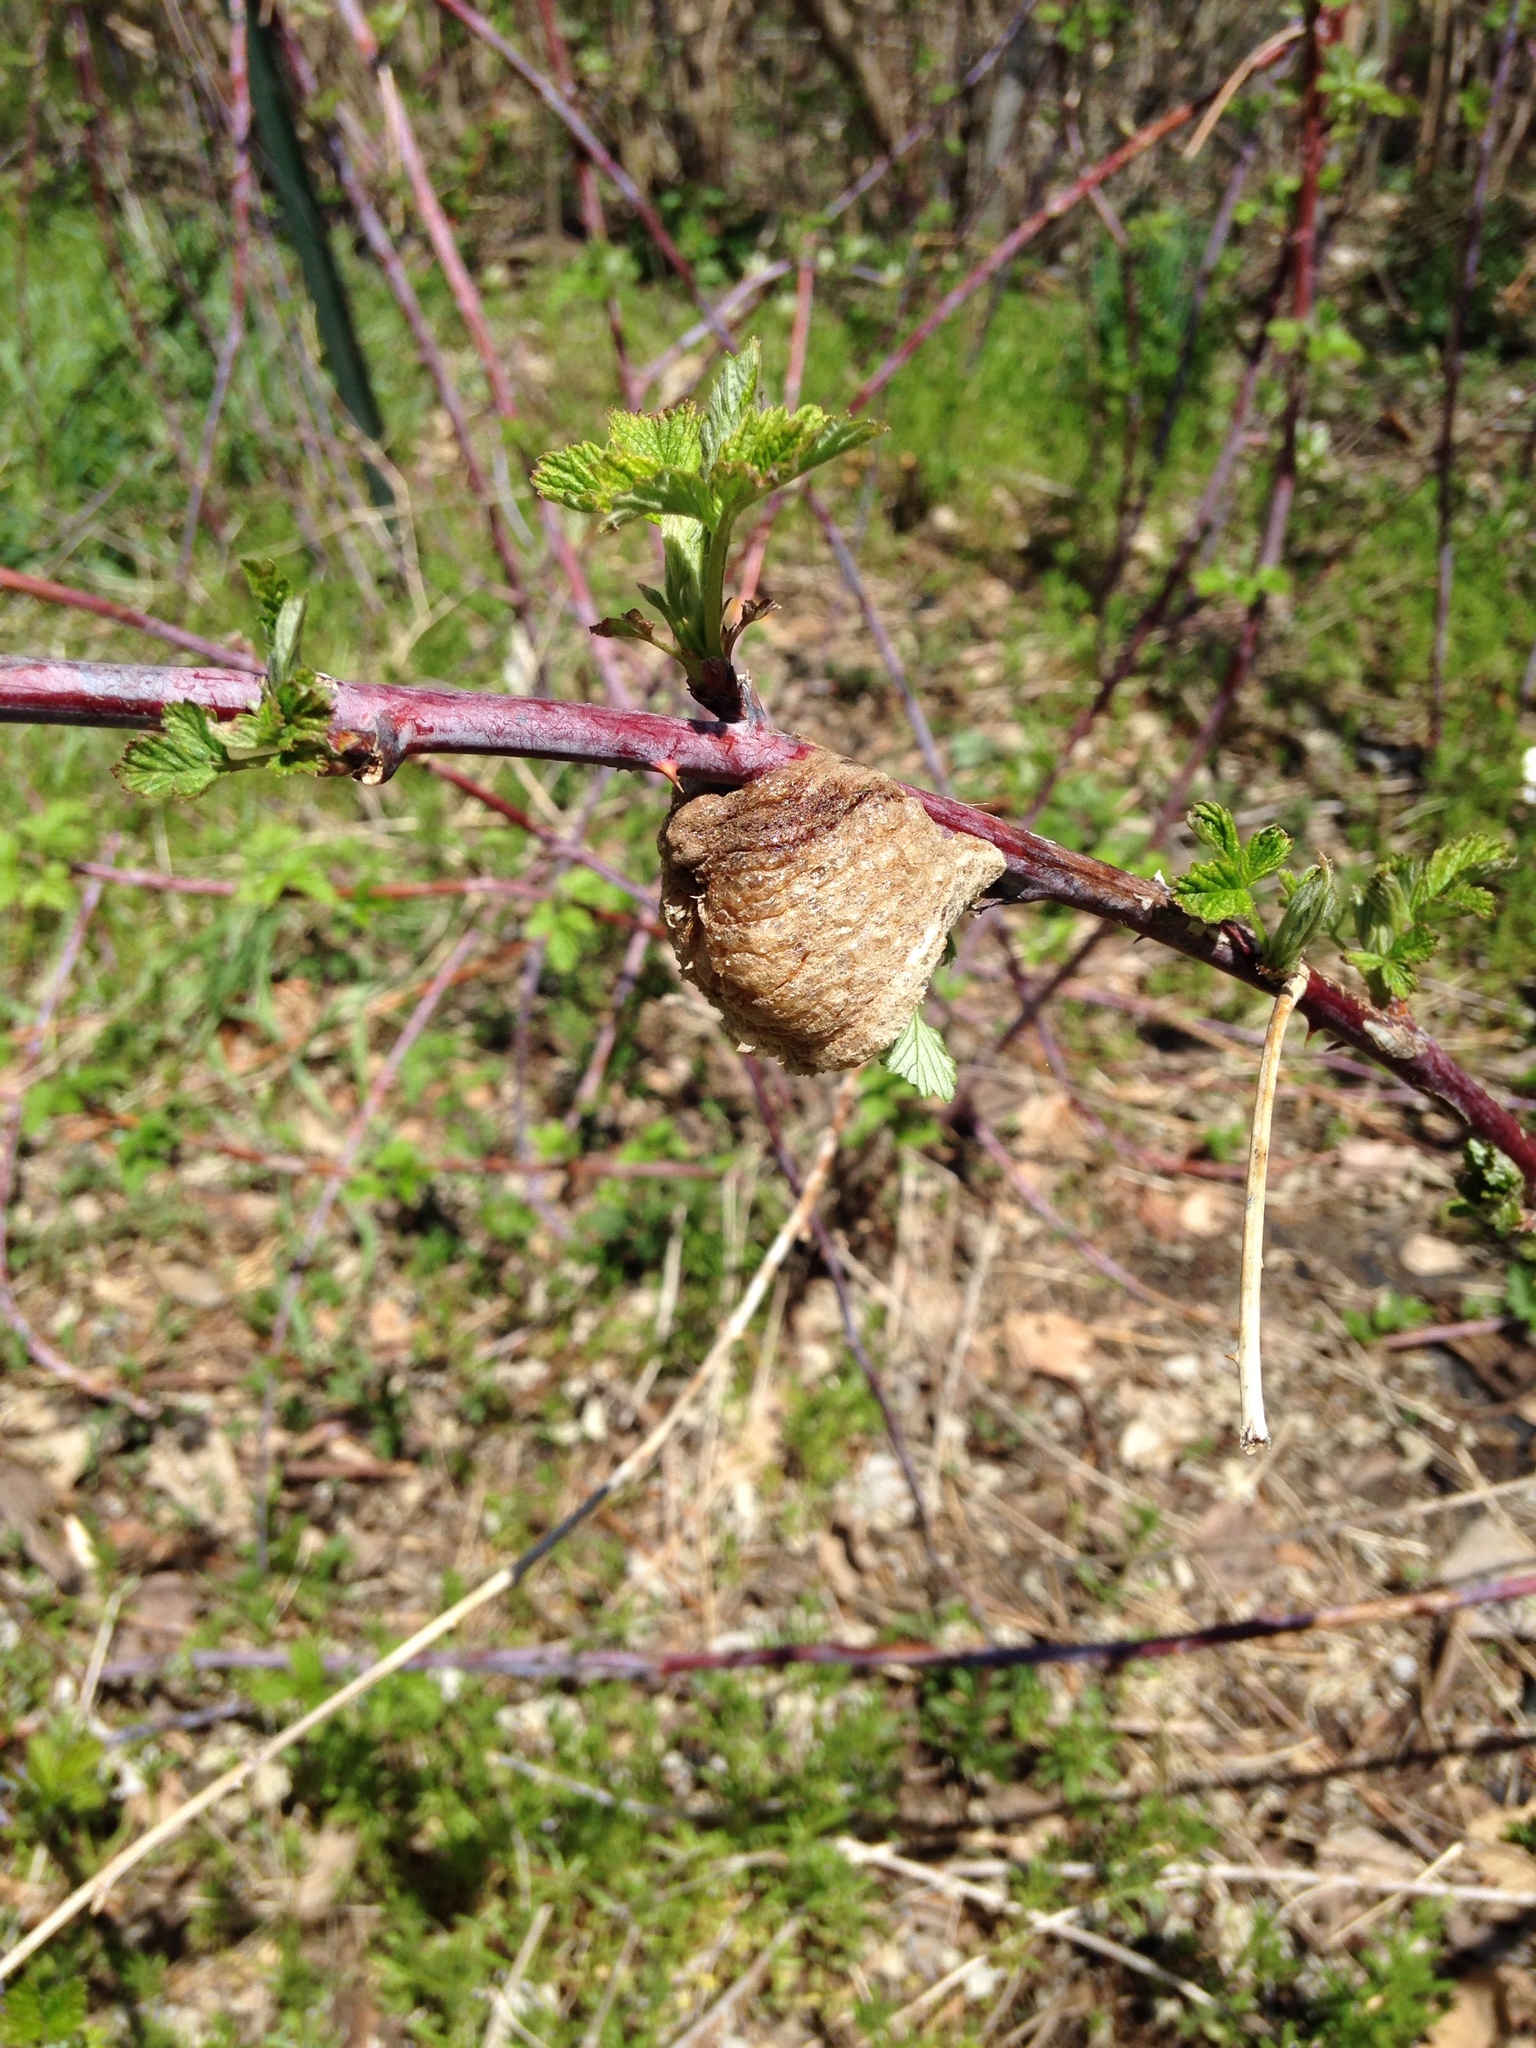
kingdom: Animalia
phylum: Arthropoda
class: Insecta
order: Mantodea
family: Mantidae
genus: Tenodera
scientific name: Tenodera sinensis
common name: Chinese mantis
